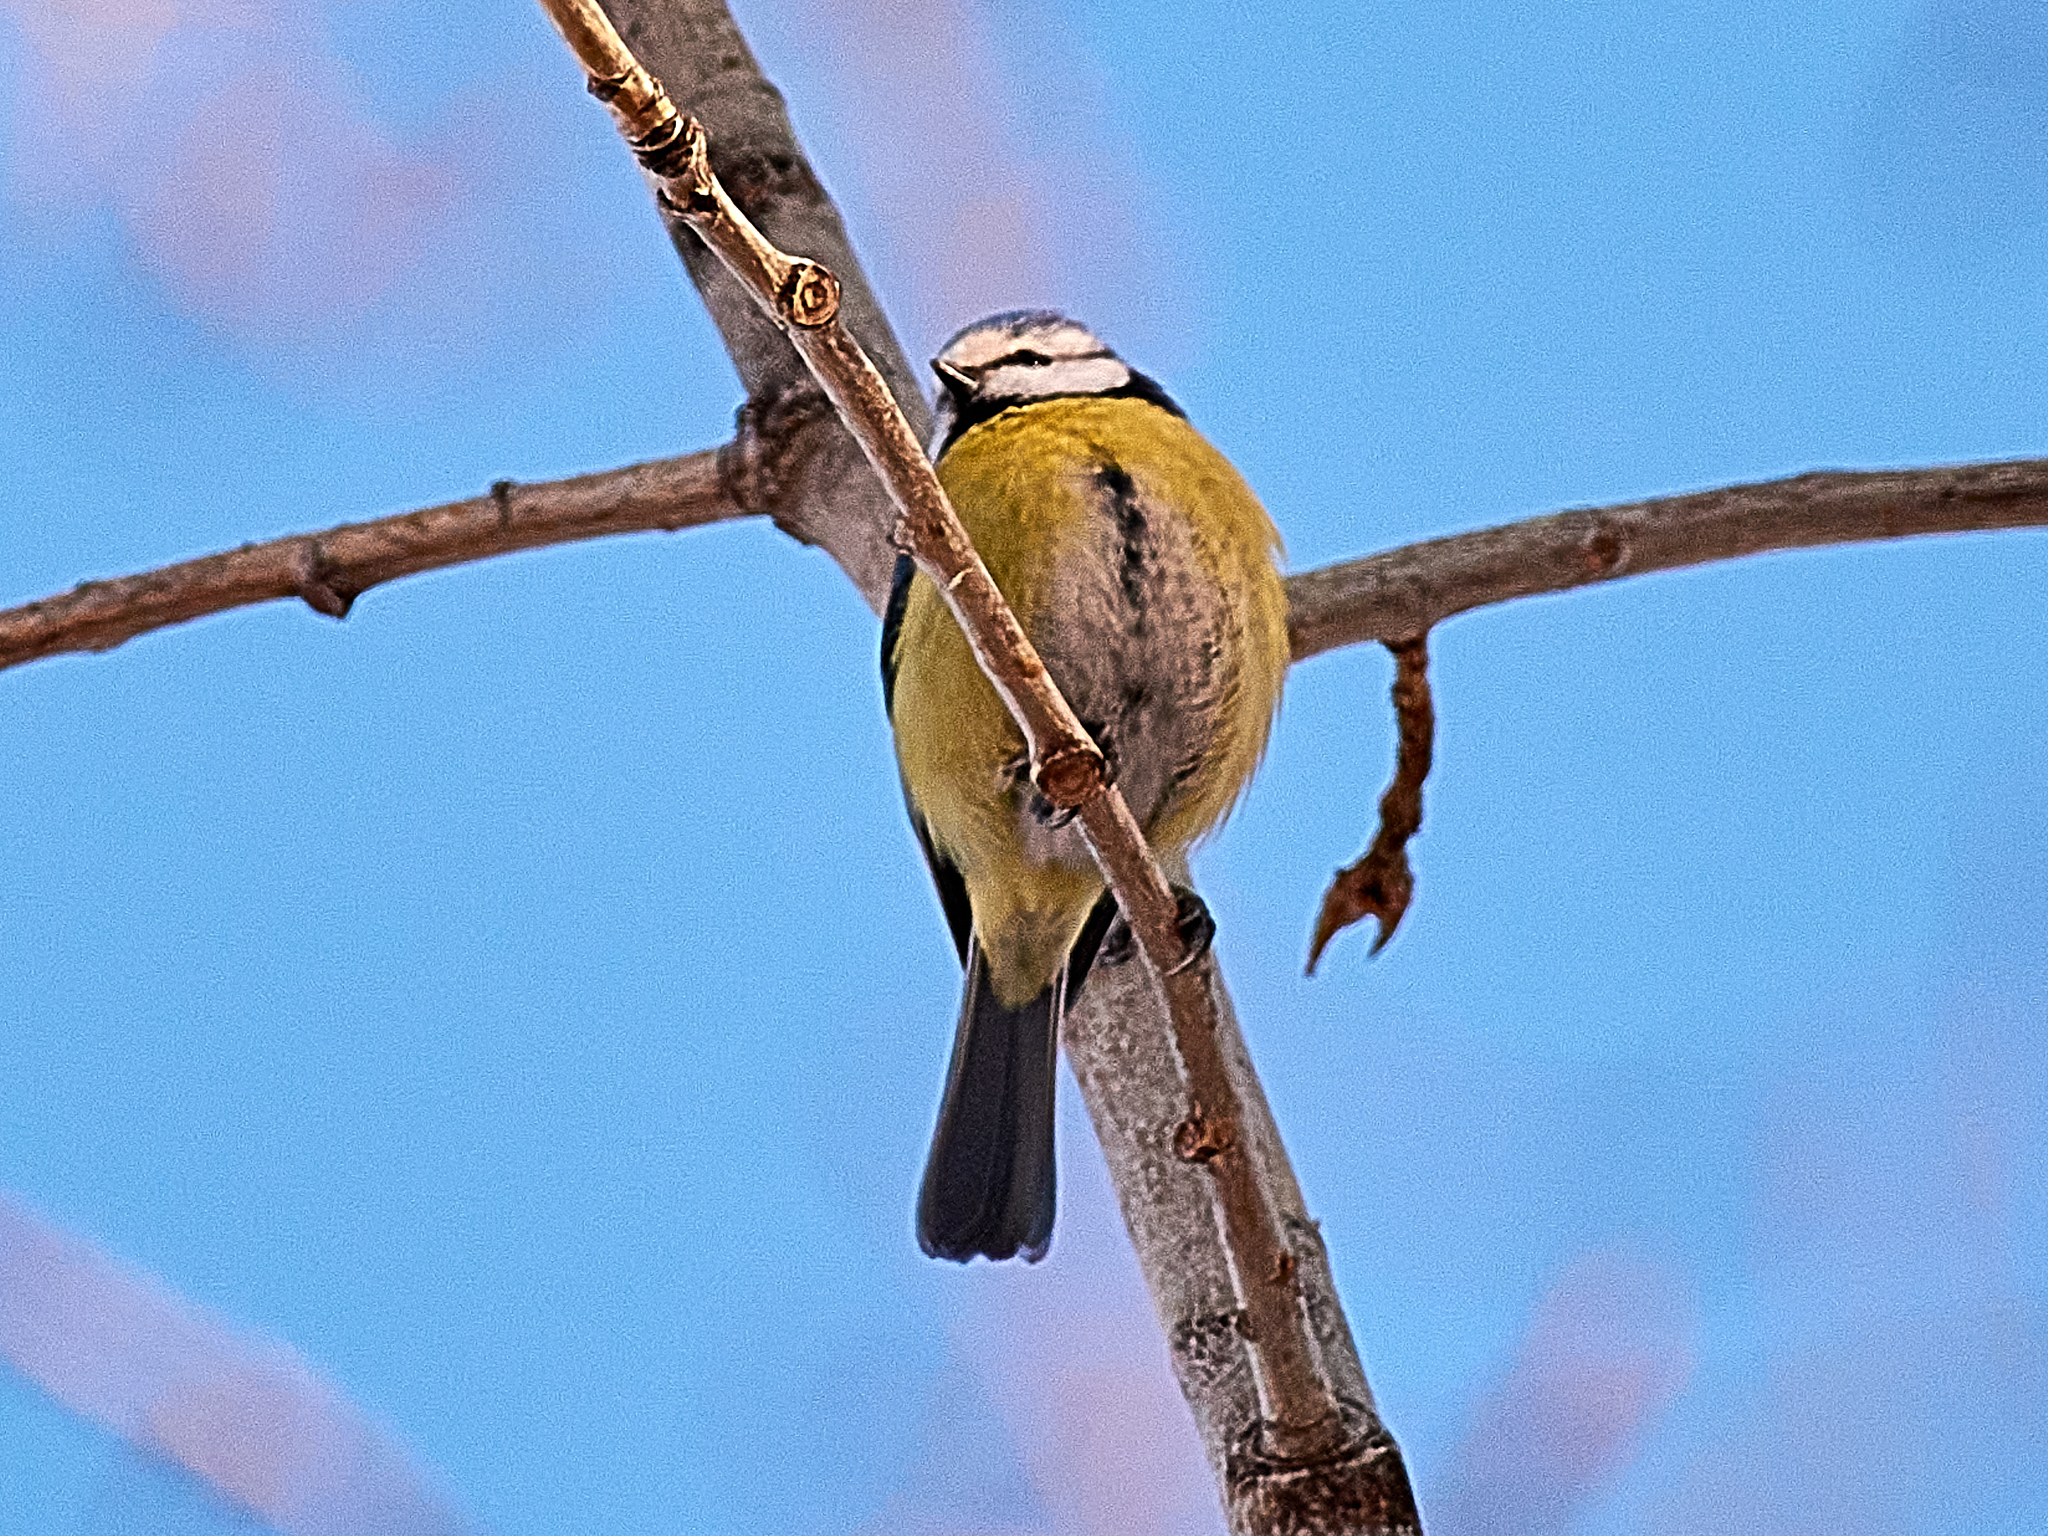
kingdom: Animalia
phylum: Chordata
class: Aves
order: Passeriformes
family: Paridae
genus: Cyanistes
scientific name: Cyanistes caeruleus
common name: Eurasian blue tit
